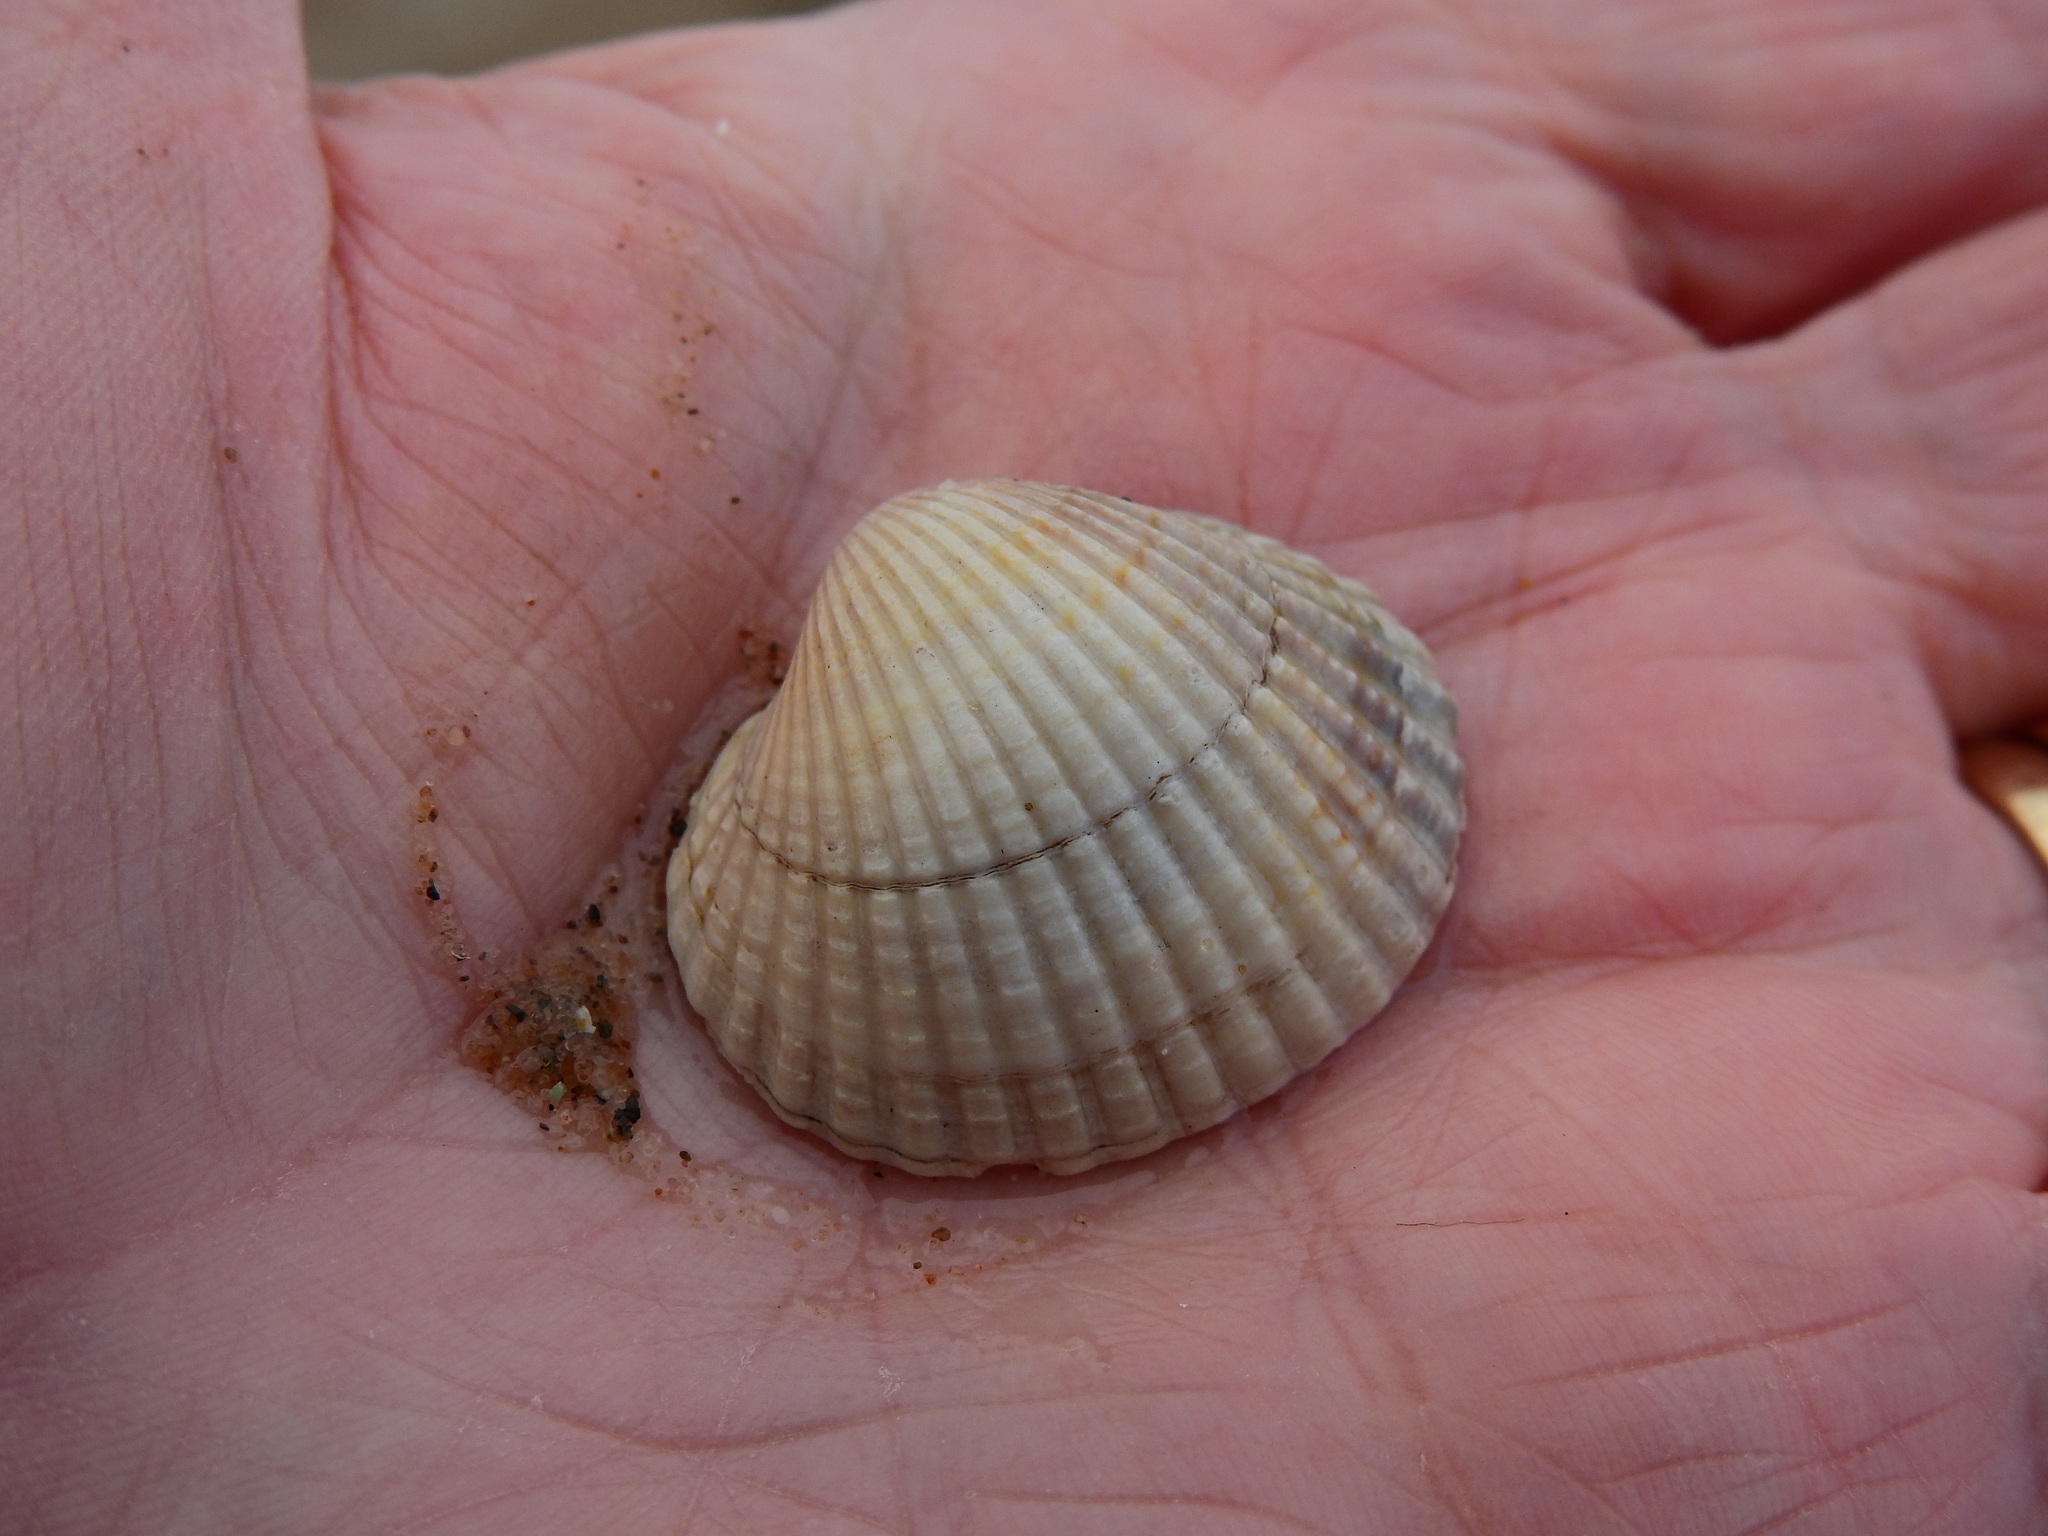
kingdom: Animalia
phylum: Mollusca
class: Bivalvia
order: Cardiida
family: Cardiidae
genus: Cerastoderma
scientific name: Cerastoderma edule
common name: Common cockle
